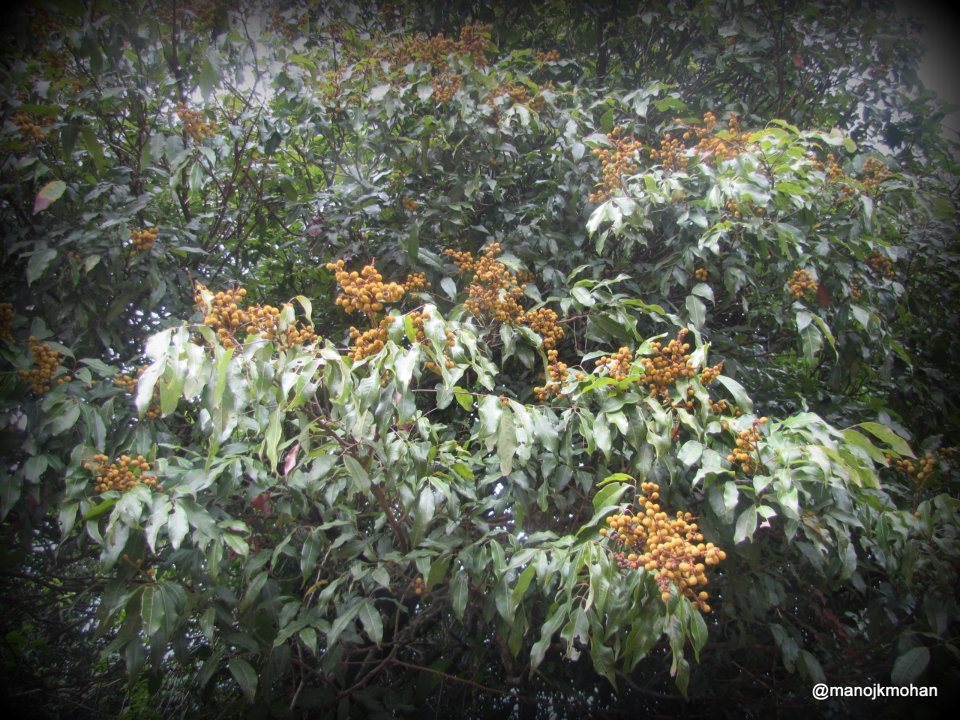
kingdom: Plantae
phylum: Tracheophyta
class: Magnoliopsida
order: Sapindales
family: Sapindaceae
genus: Dimocarpus
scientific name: Dimocarpus longan
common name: Longan
